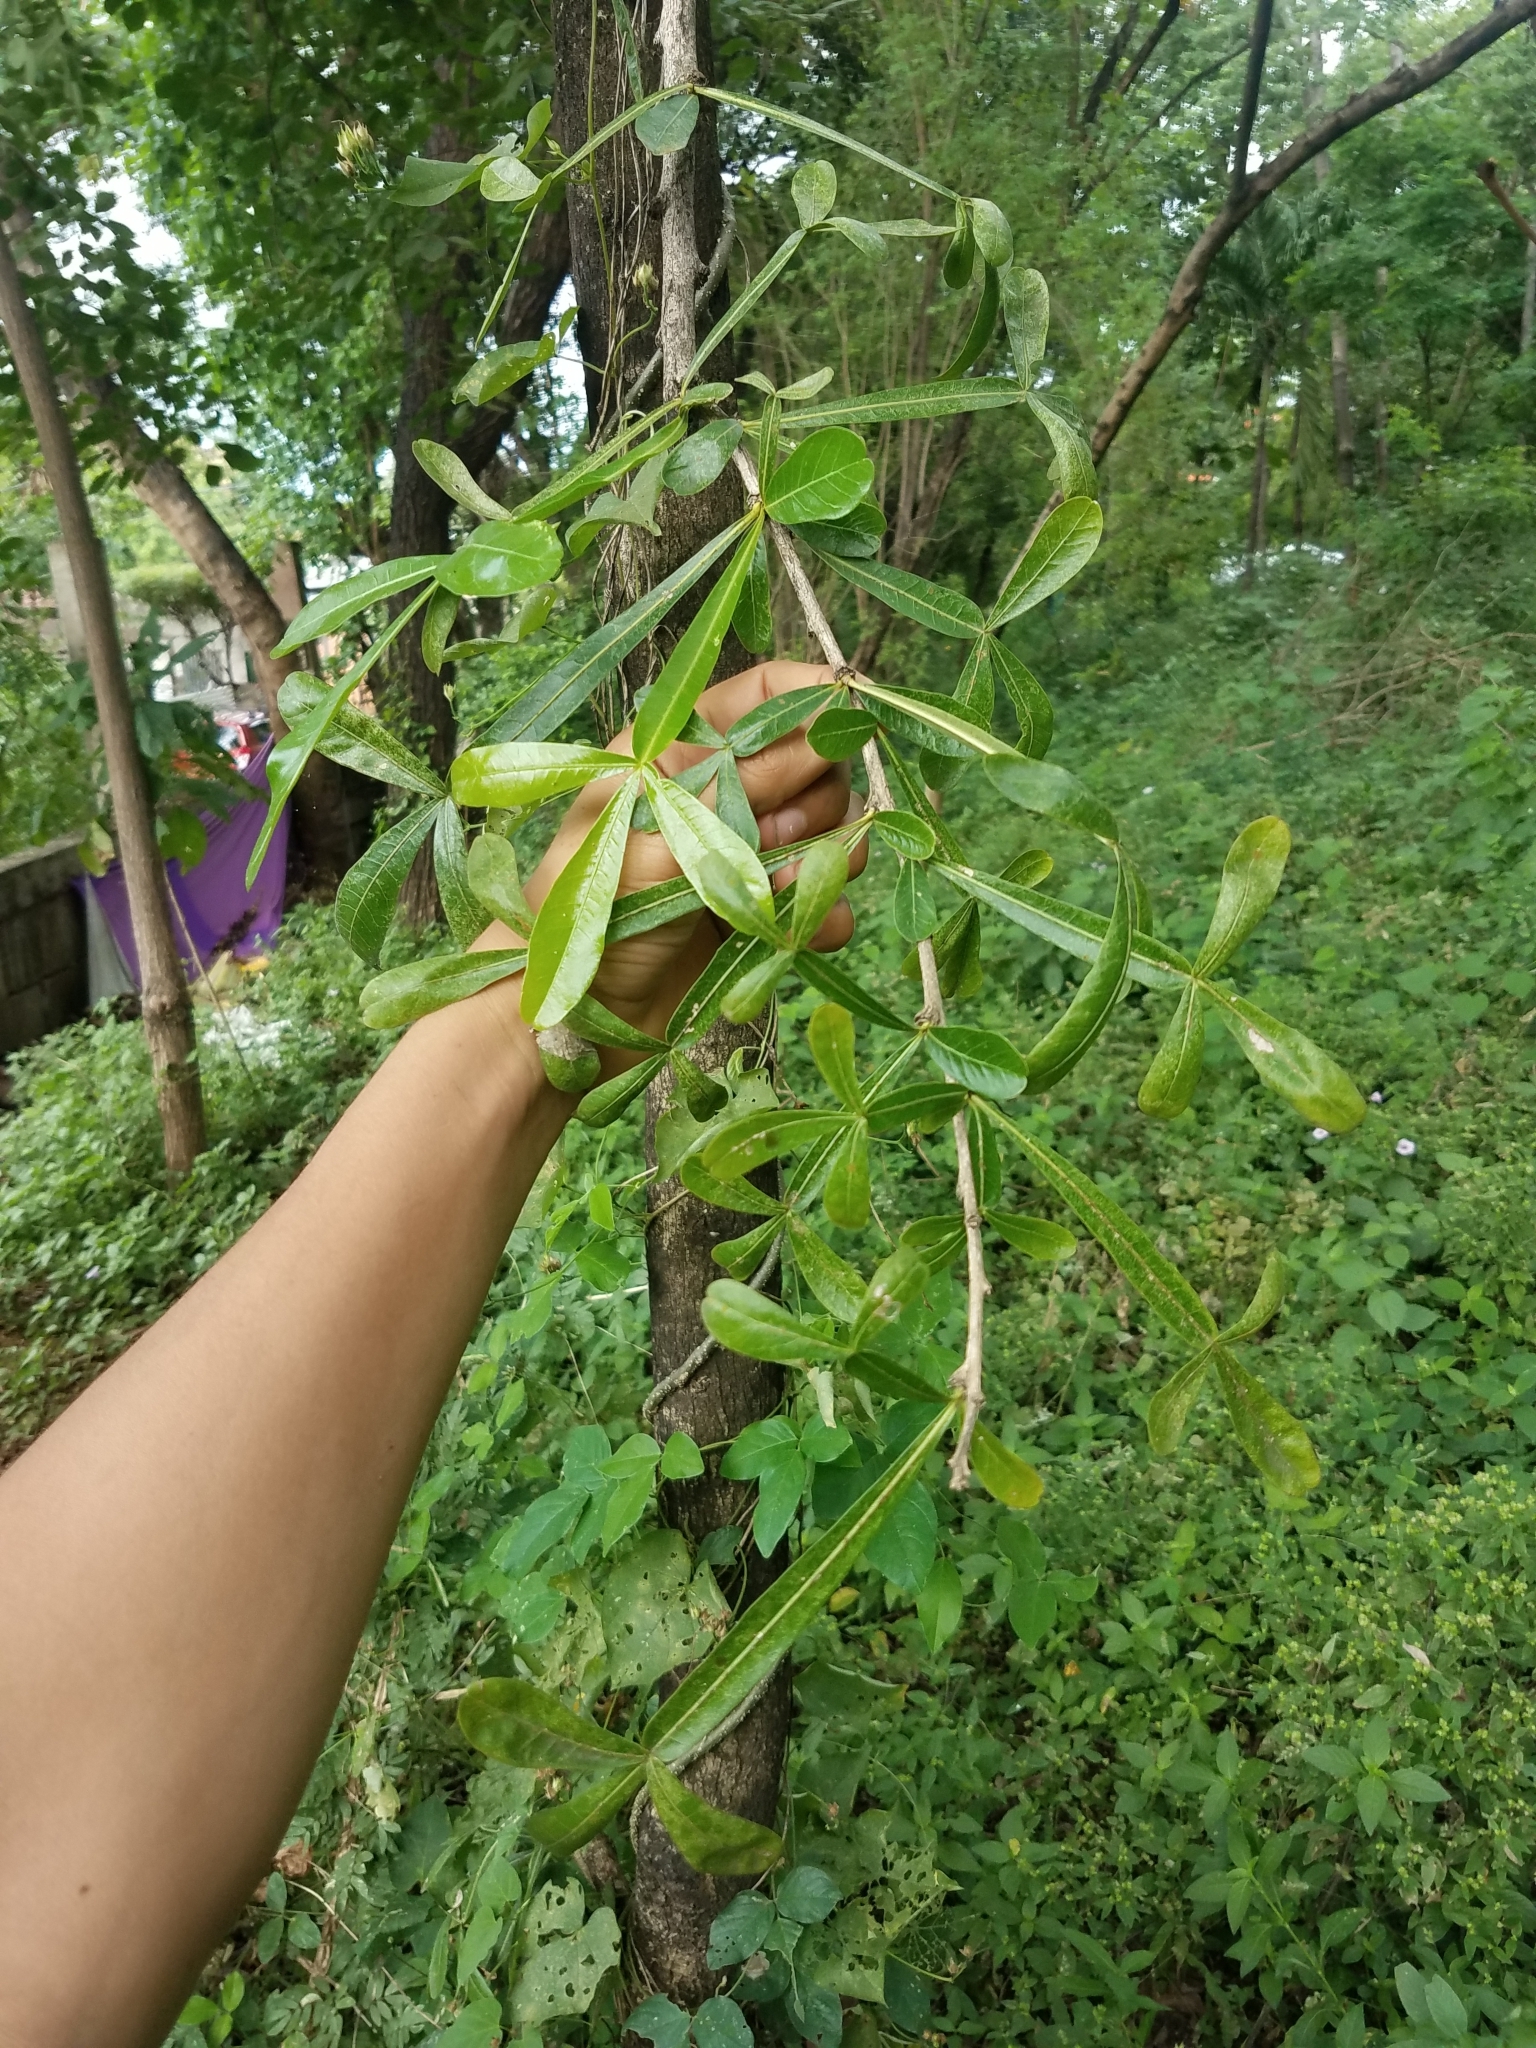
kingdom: Plantae
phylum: Tracheophyta
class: Magnoliopsida
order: Lamiales
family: Bignoniaceae
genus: Crescentia
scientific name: Crescentia alata
